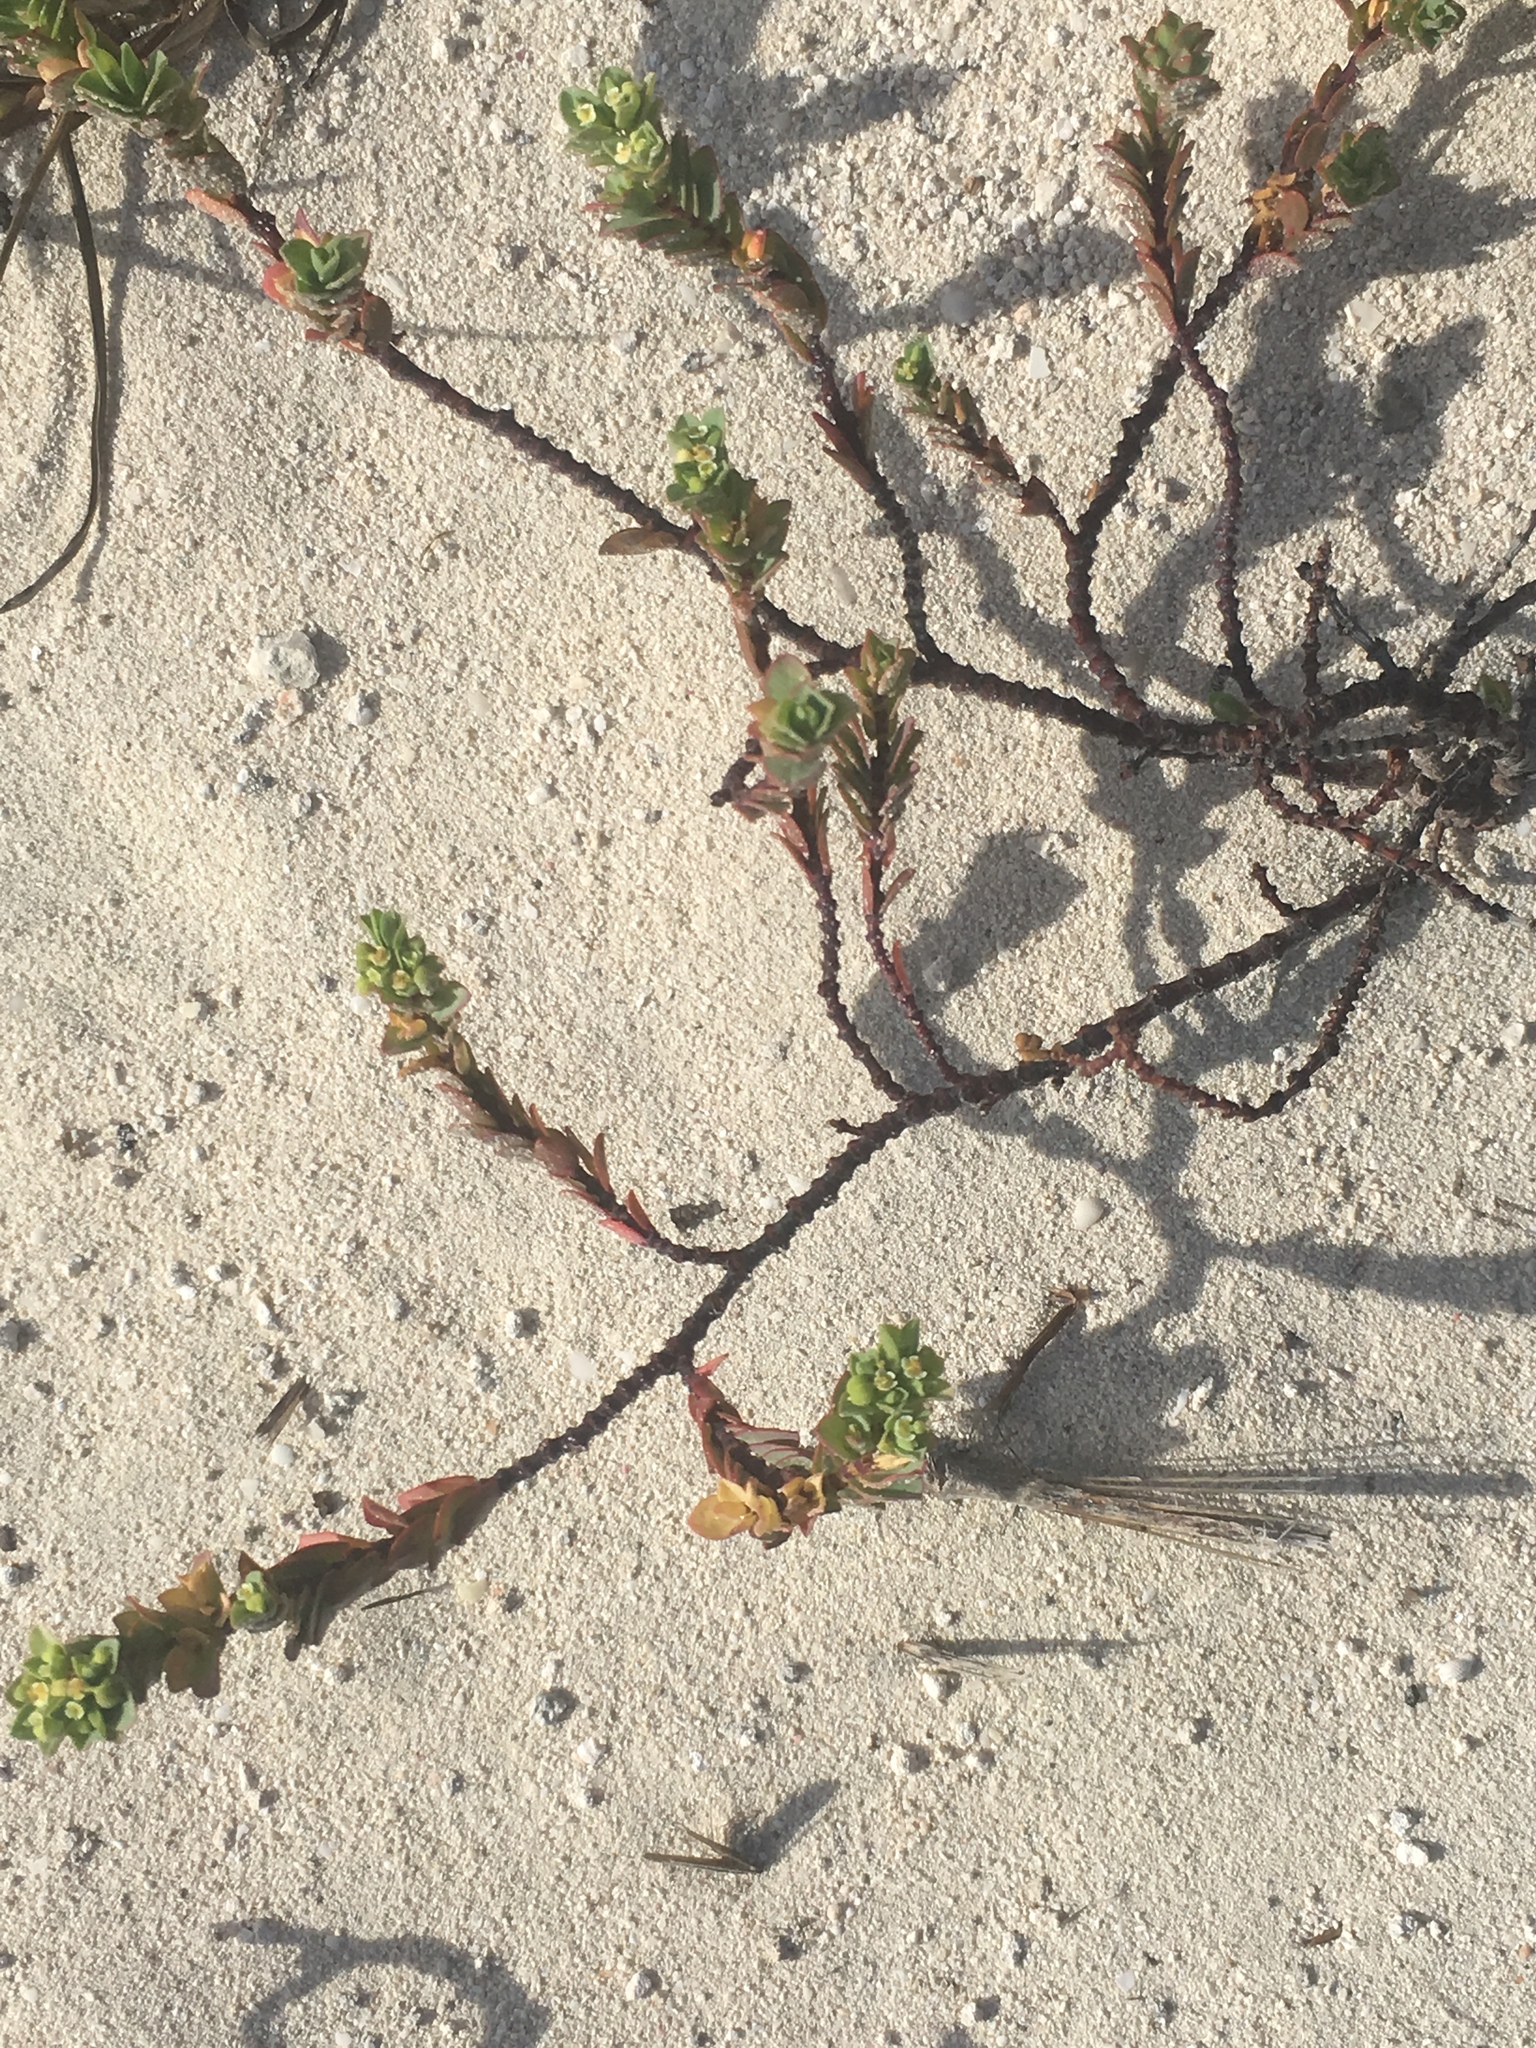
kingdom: Plantae
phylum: Tracheophyta
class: Magnoliopsida
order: Malpighiales
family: Euphorbiaceae
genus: Euphorbia
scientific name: Euphorbia mesembryanthemifolia
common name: Coastal beach sandmat
